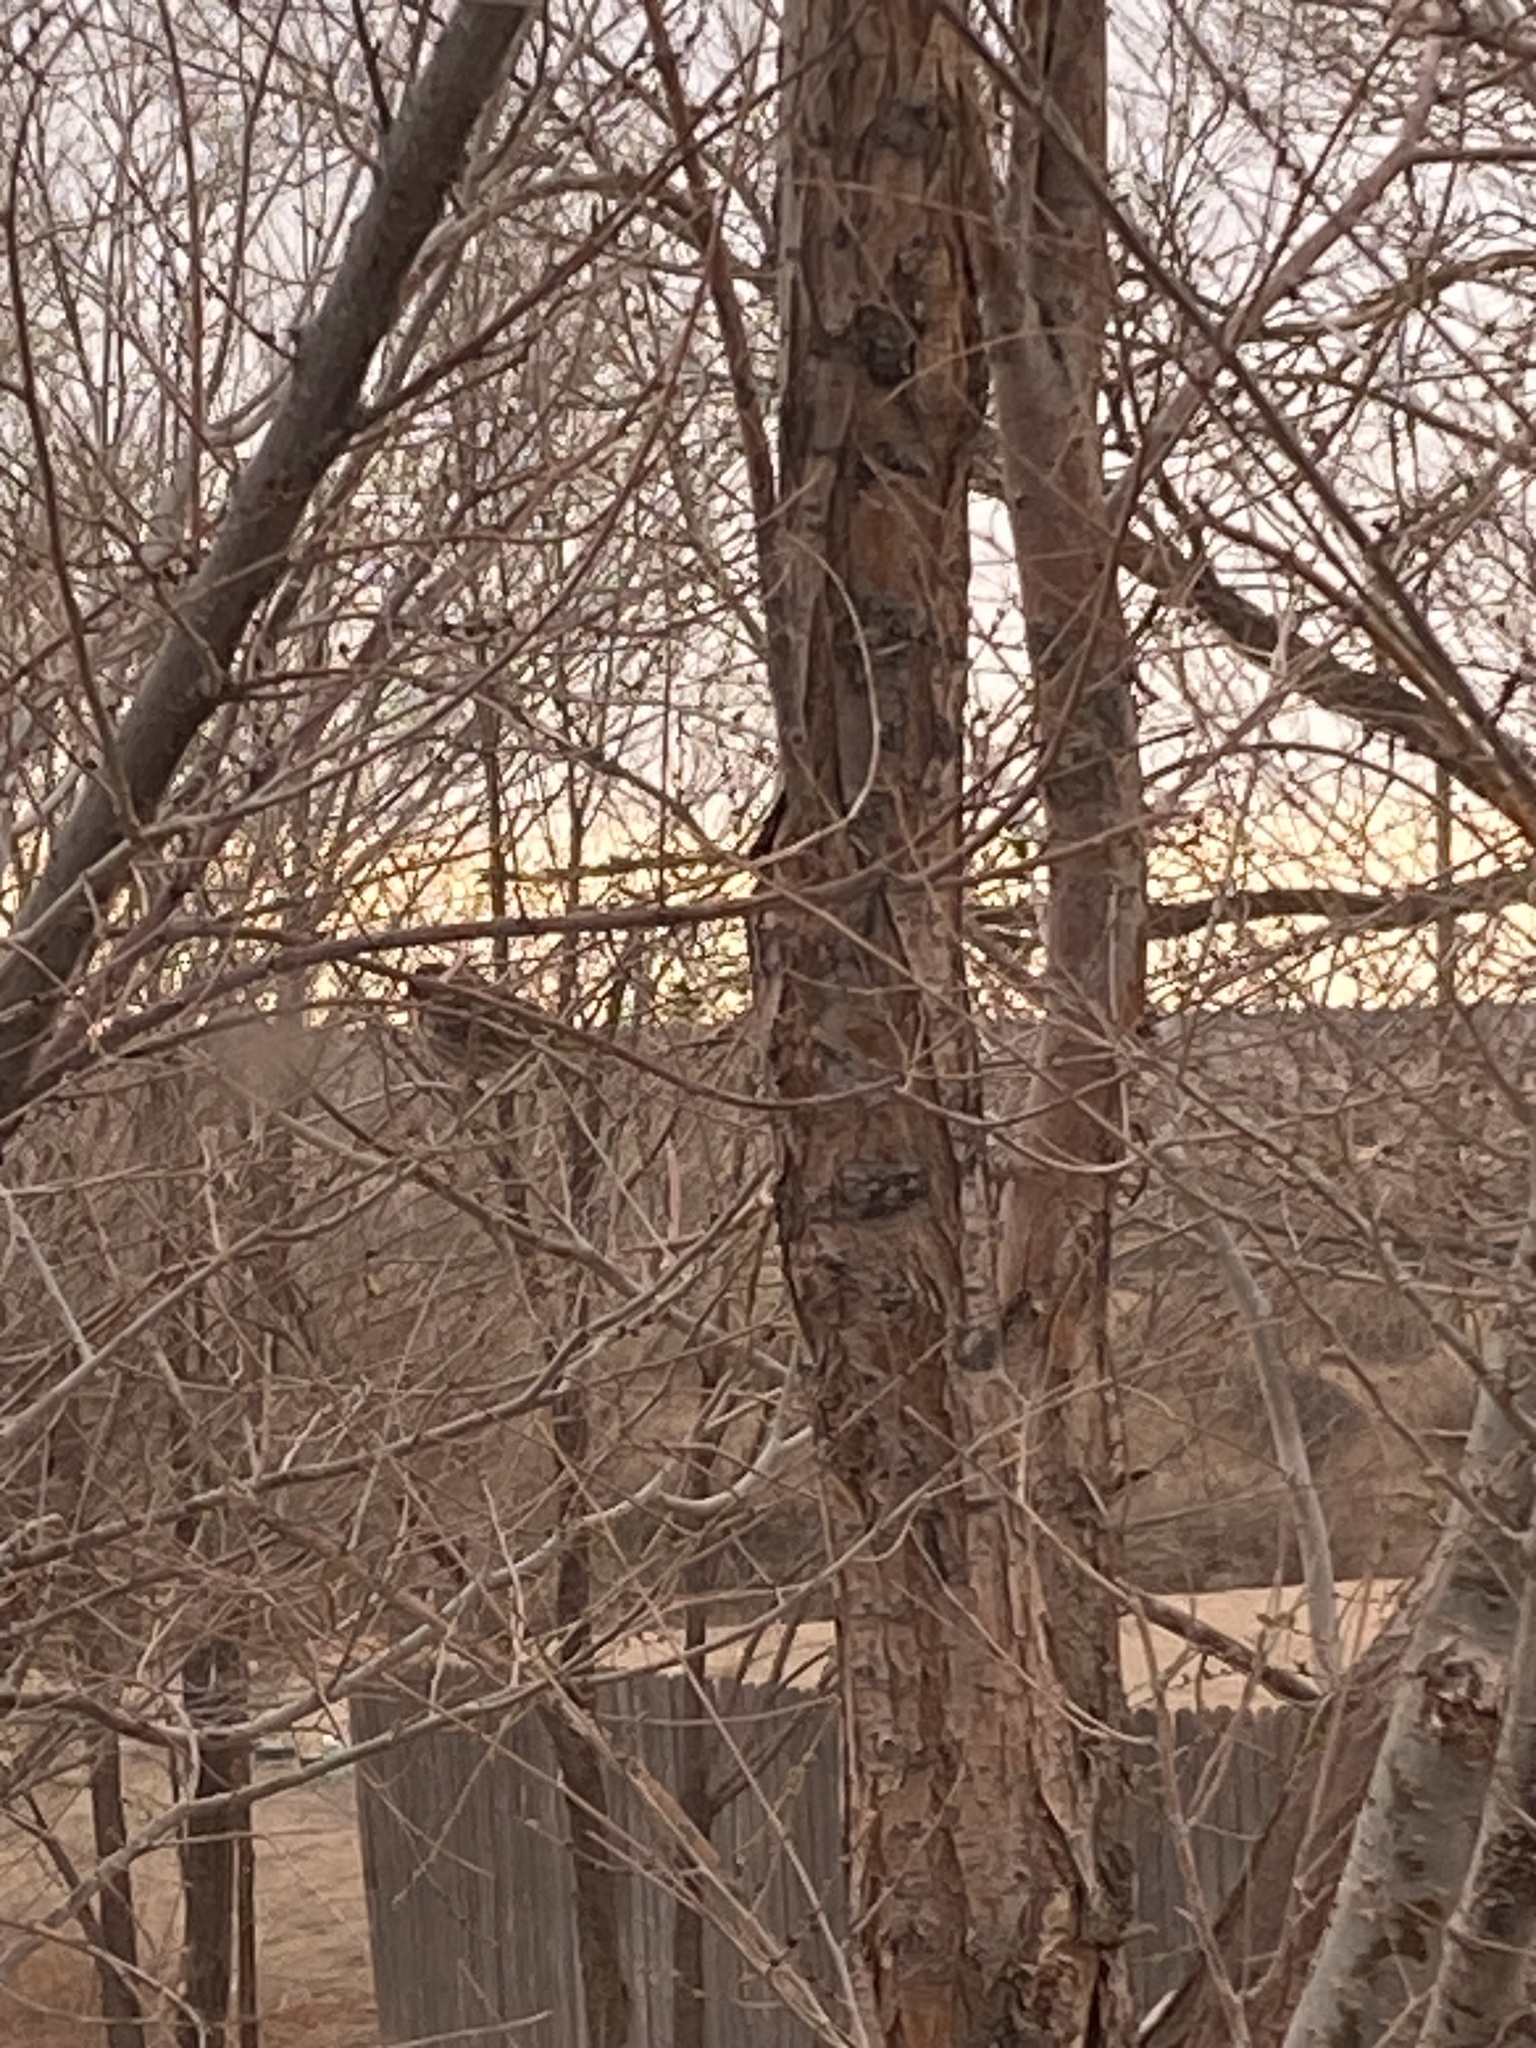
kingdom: Animalia
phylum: Chordata
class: Aves
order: Passeriformes
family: Passerellidae
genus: Spizelloides
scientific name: Spizelloides arborea
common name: American tree sparrow
